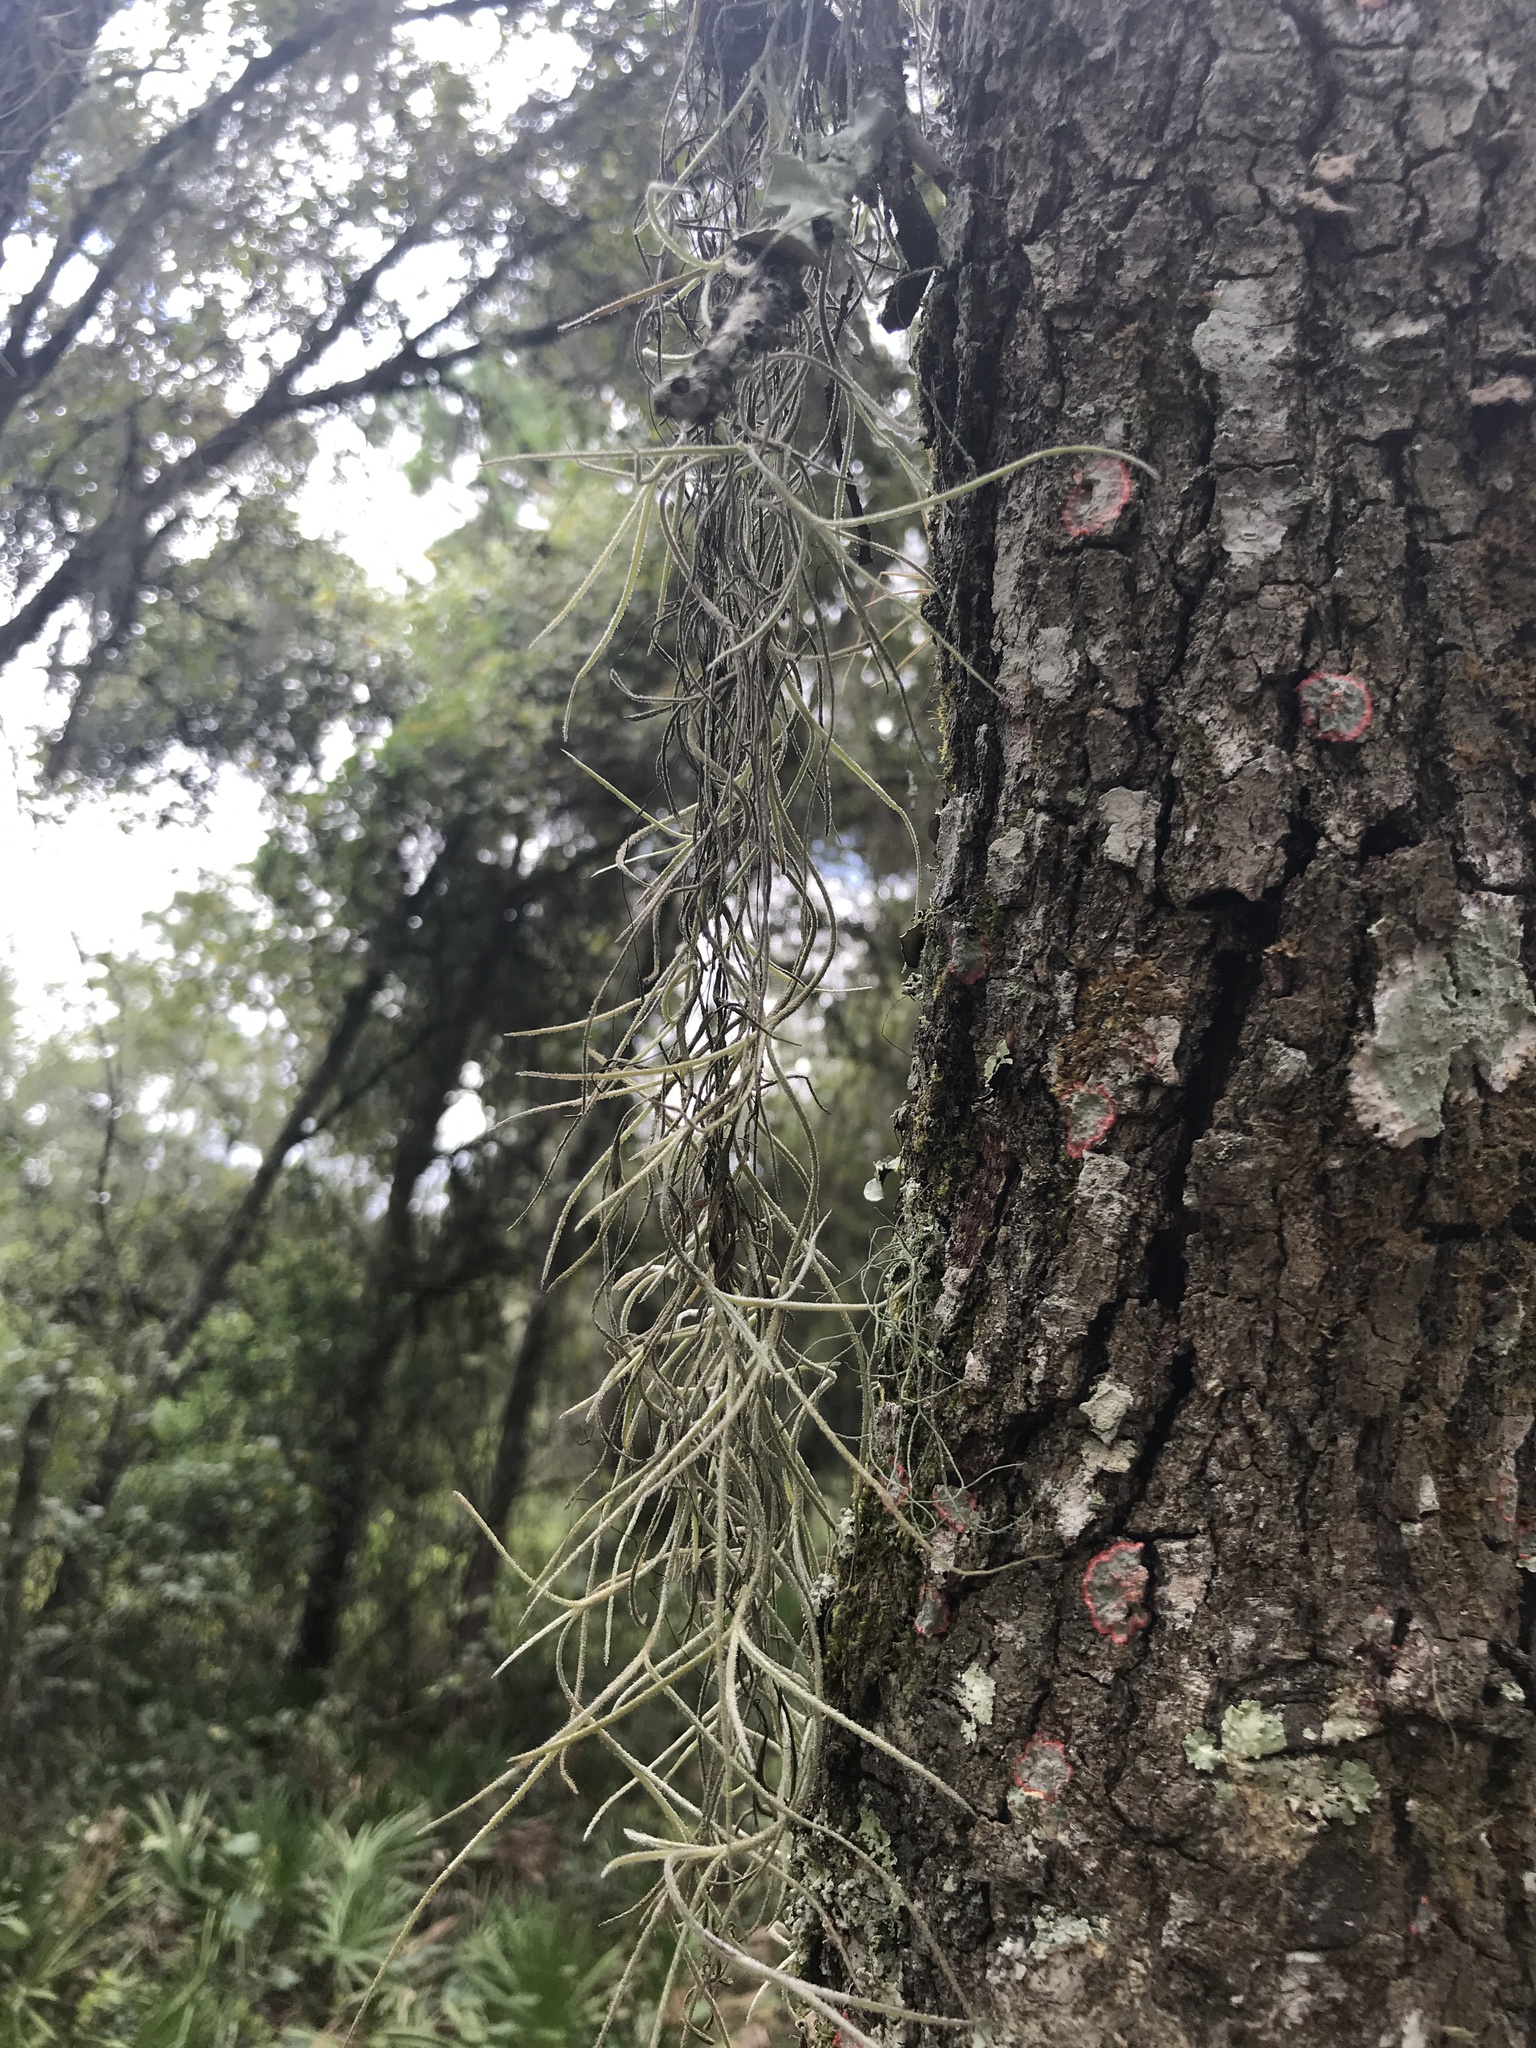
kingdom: Plantae
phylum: Tracheophyta
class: Liliopsida
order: Poales
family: Bromeliaceae
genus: Tillandsia
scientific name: Tillandsia usneoides
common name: Spanish moss
